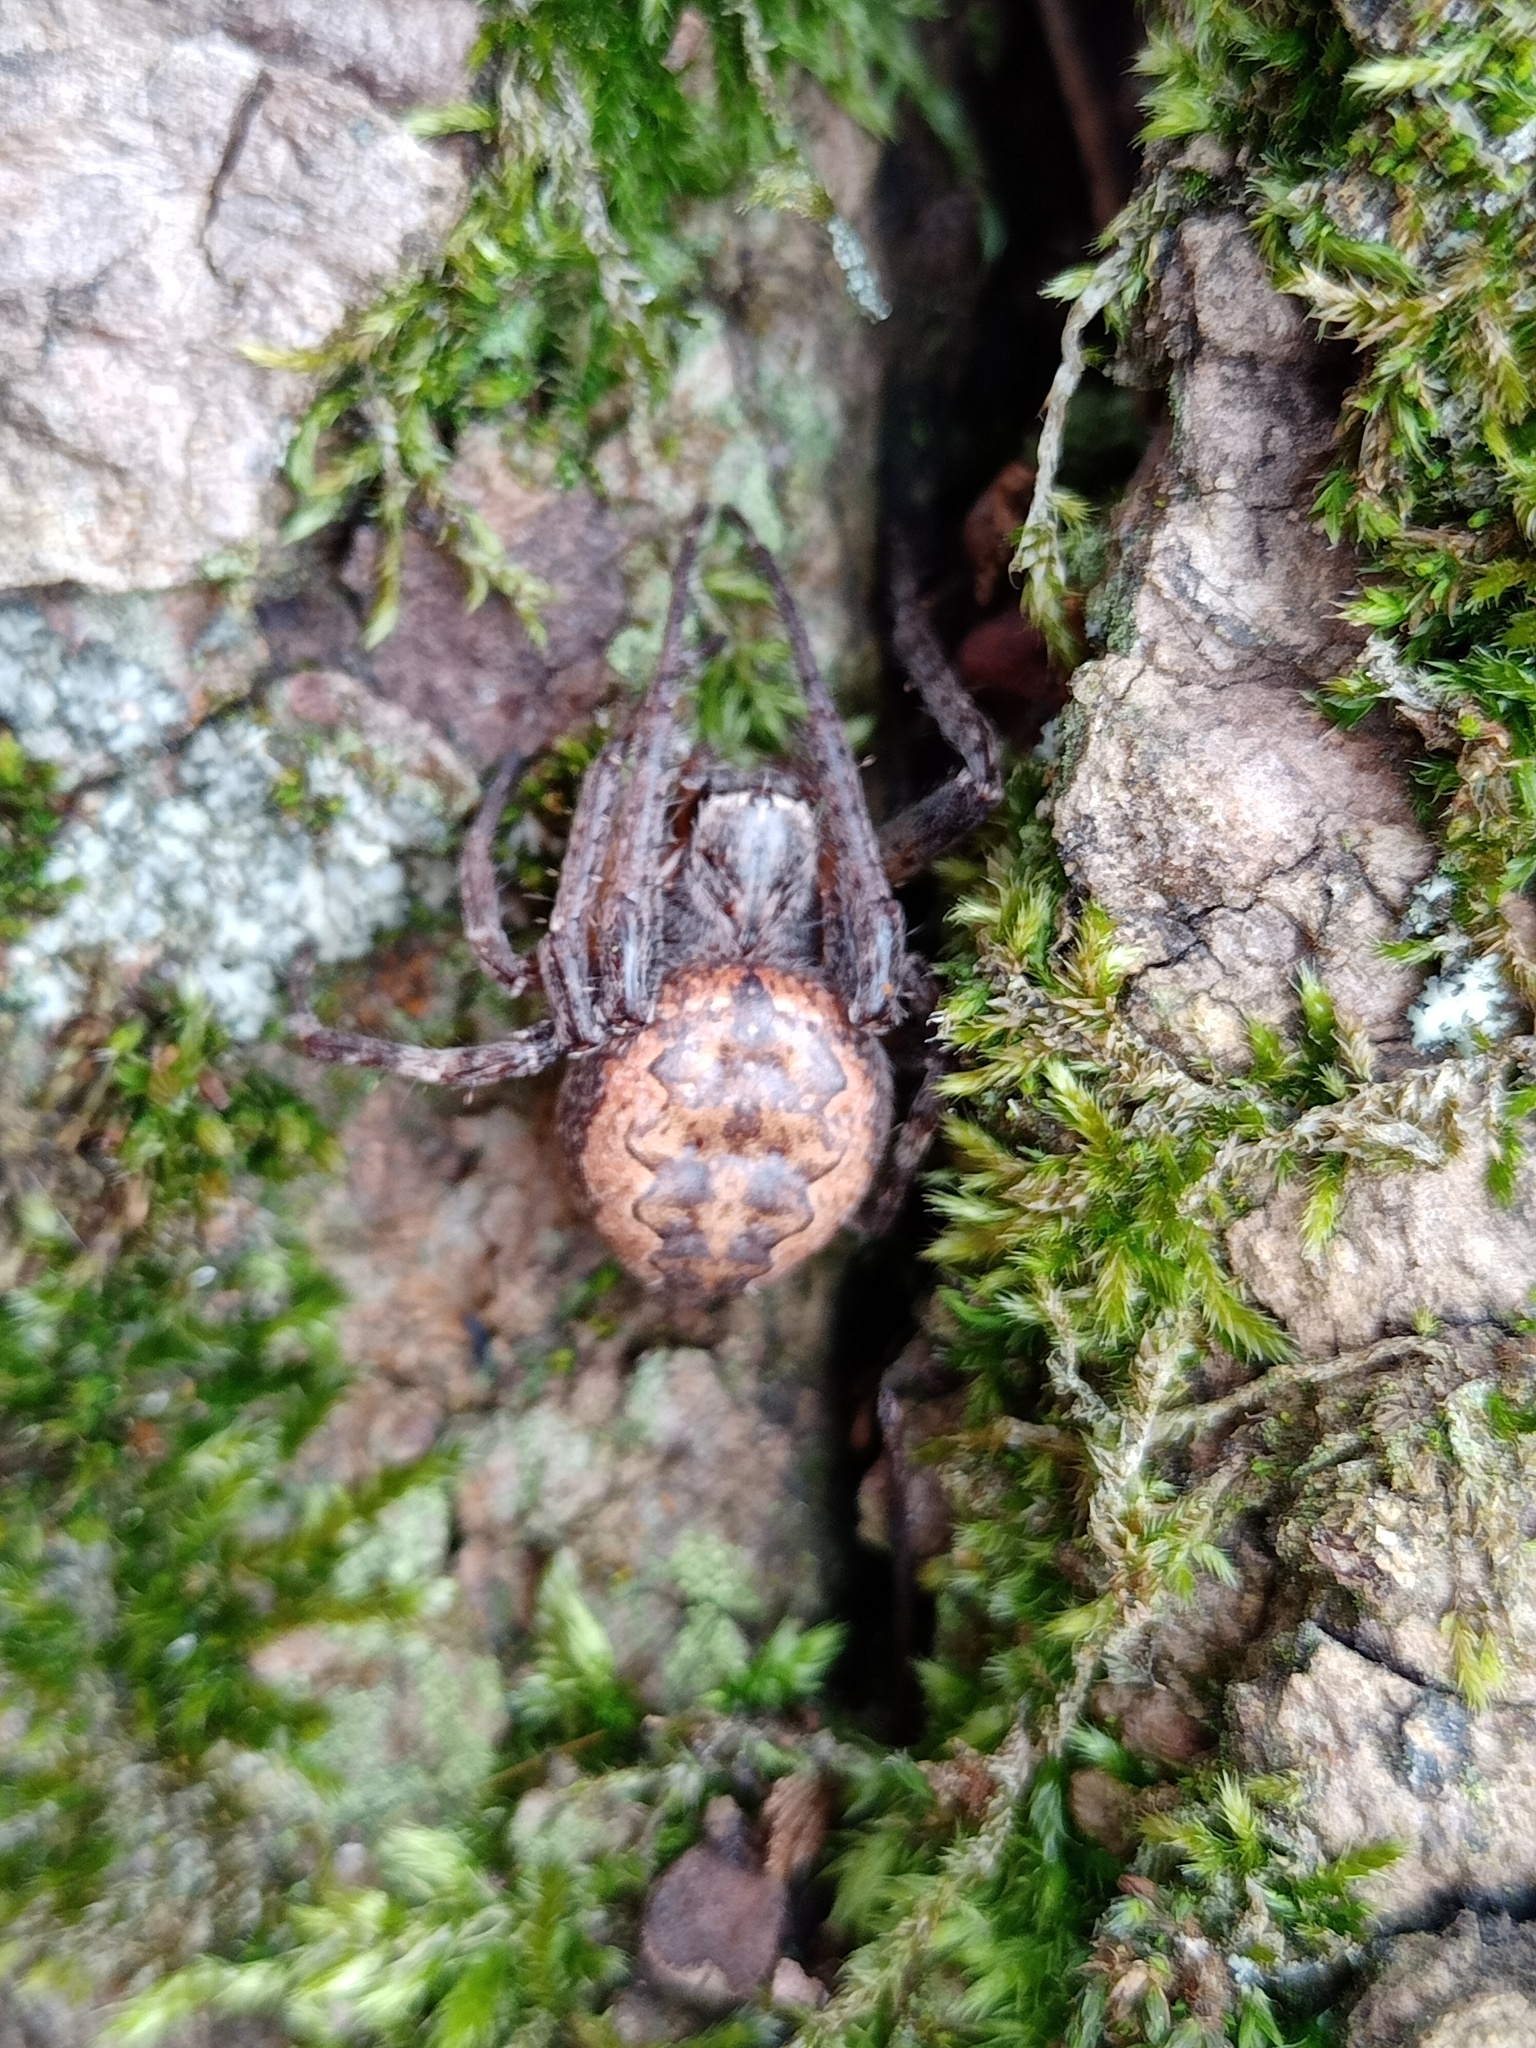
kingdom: Animalia
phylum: Arthropoda
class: Arachnida
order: Araneae
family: Araneidae
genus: Larinioides
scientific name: Larinioides ixobolus
